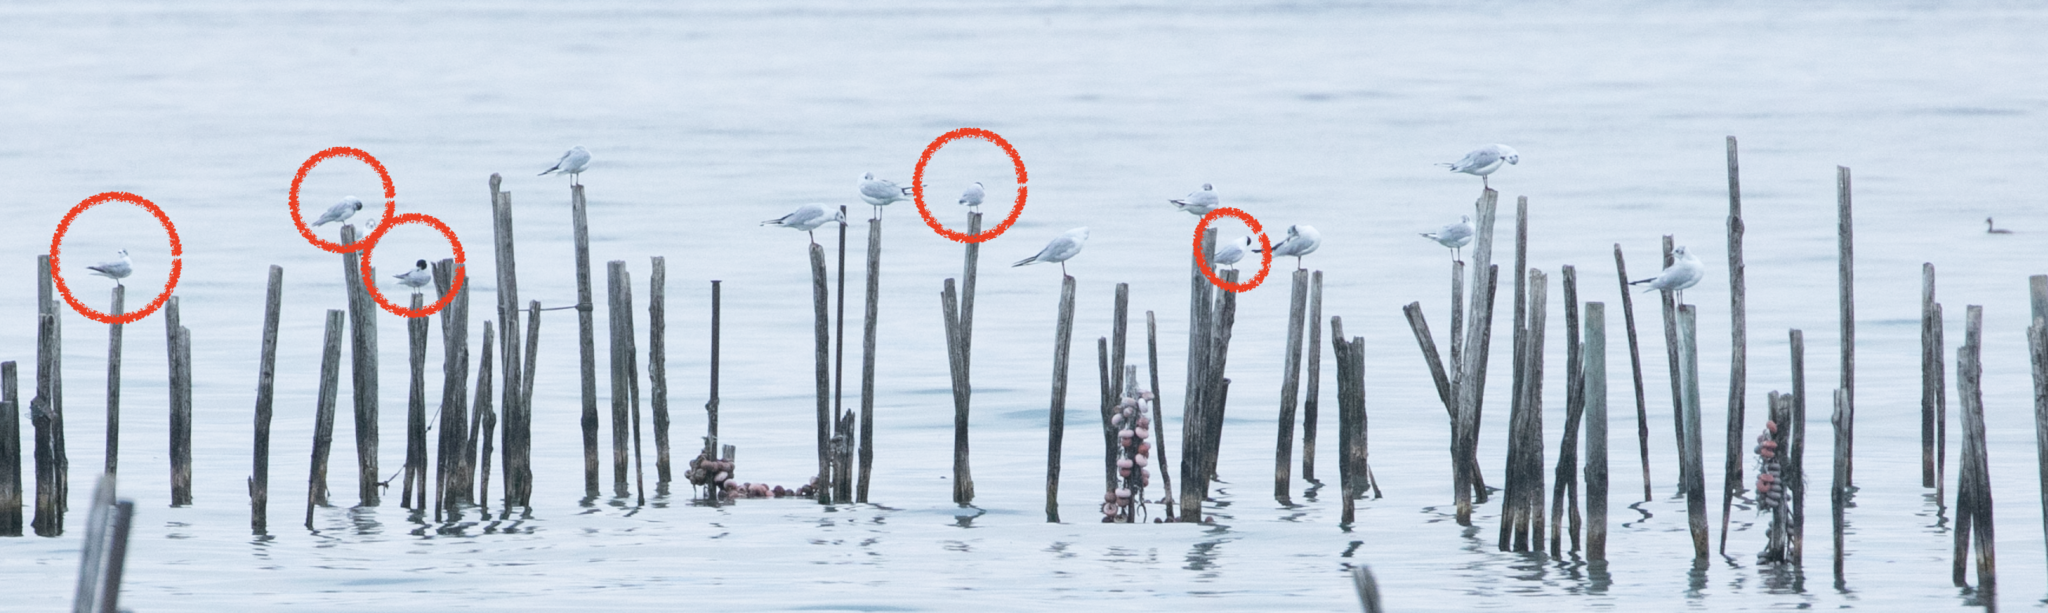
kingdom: Animalia
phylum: Chordata
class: Aves
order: Charadriiformes
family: Laridae
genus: Hydrocoloeus
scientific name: Hydrocoloeus minutus
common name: Little gull
